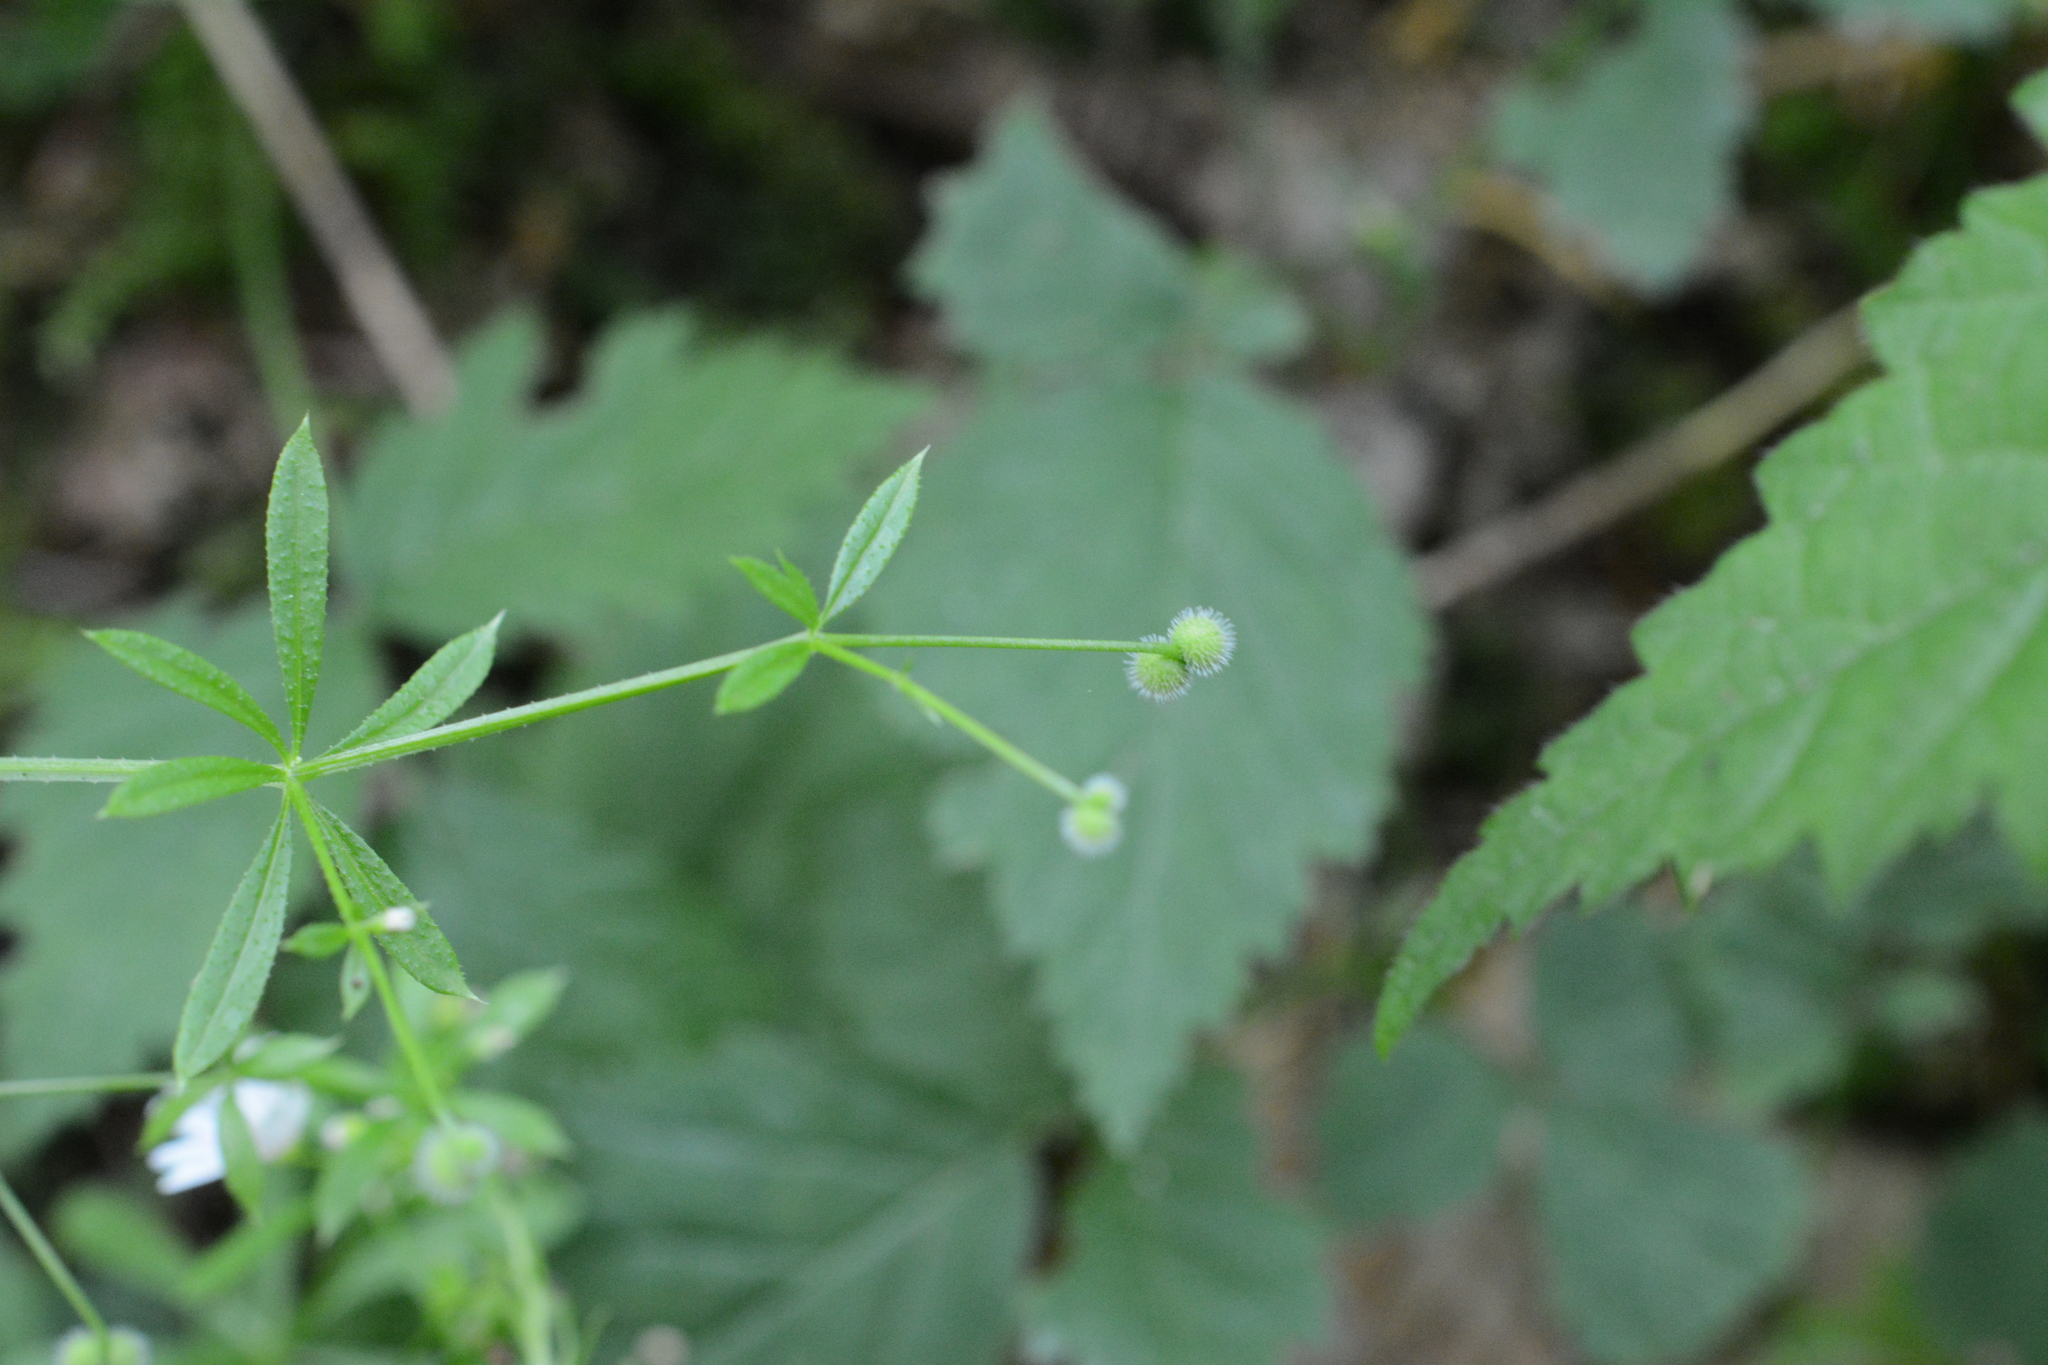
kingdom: Plantae
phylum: Tracheophyta
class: Magnoliopsida
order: Gentianales
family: Rubiaceae
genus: Galium
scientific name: Galium aparine
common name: Cleavers
